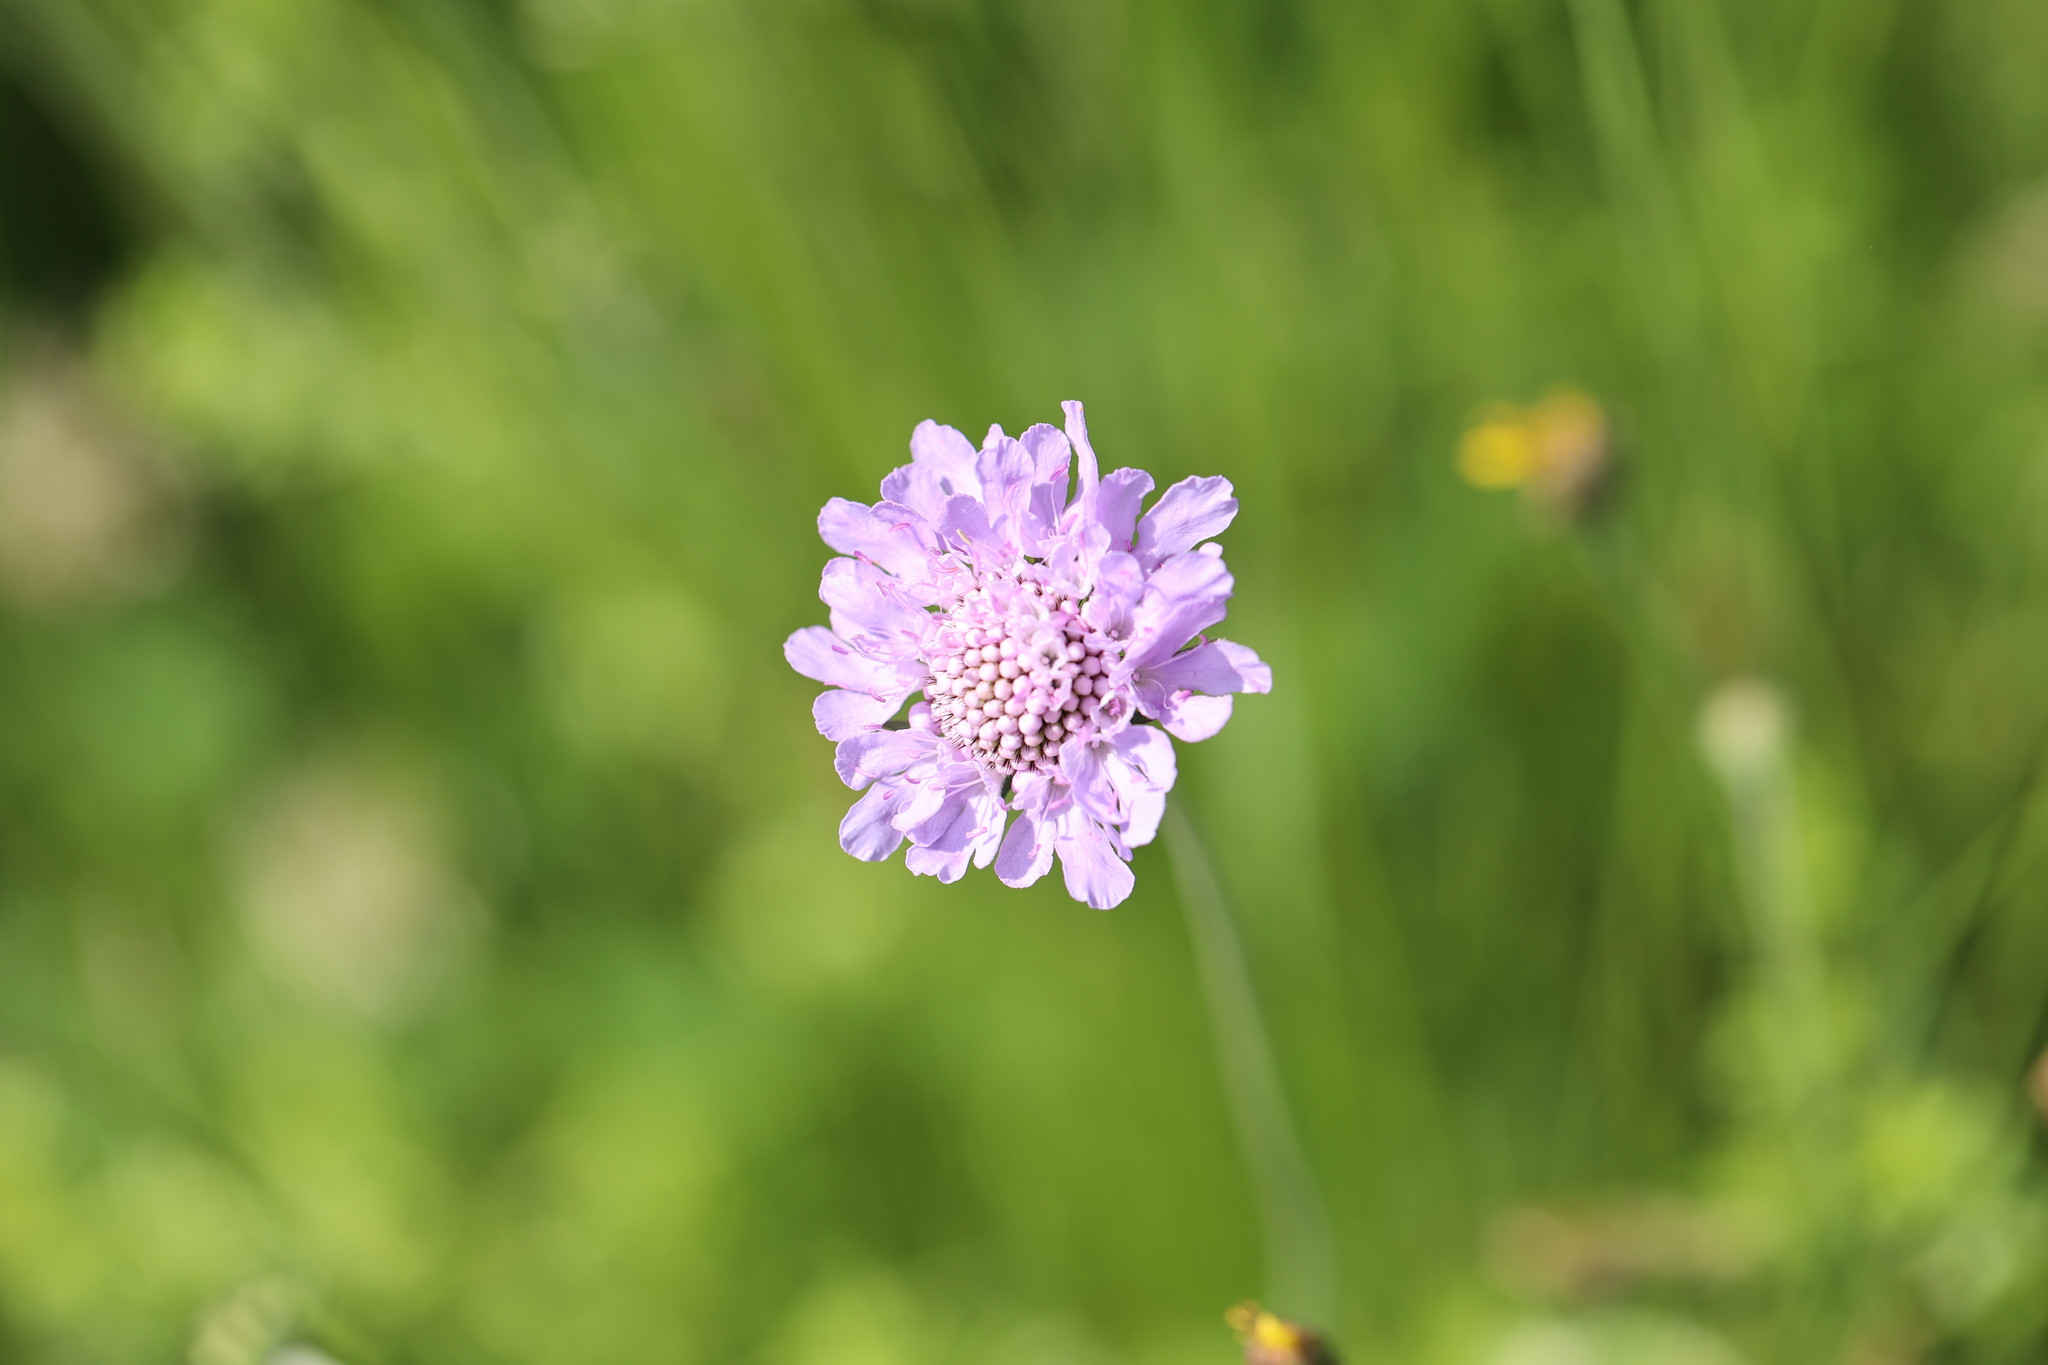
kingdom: Plantae
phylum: Tracheophyta
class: Magnoliopsida
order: Dipsacales
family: Caprifoliaceae
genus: Knautia
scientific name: Knautia arvensis
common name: Field scabiosa
